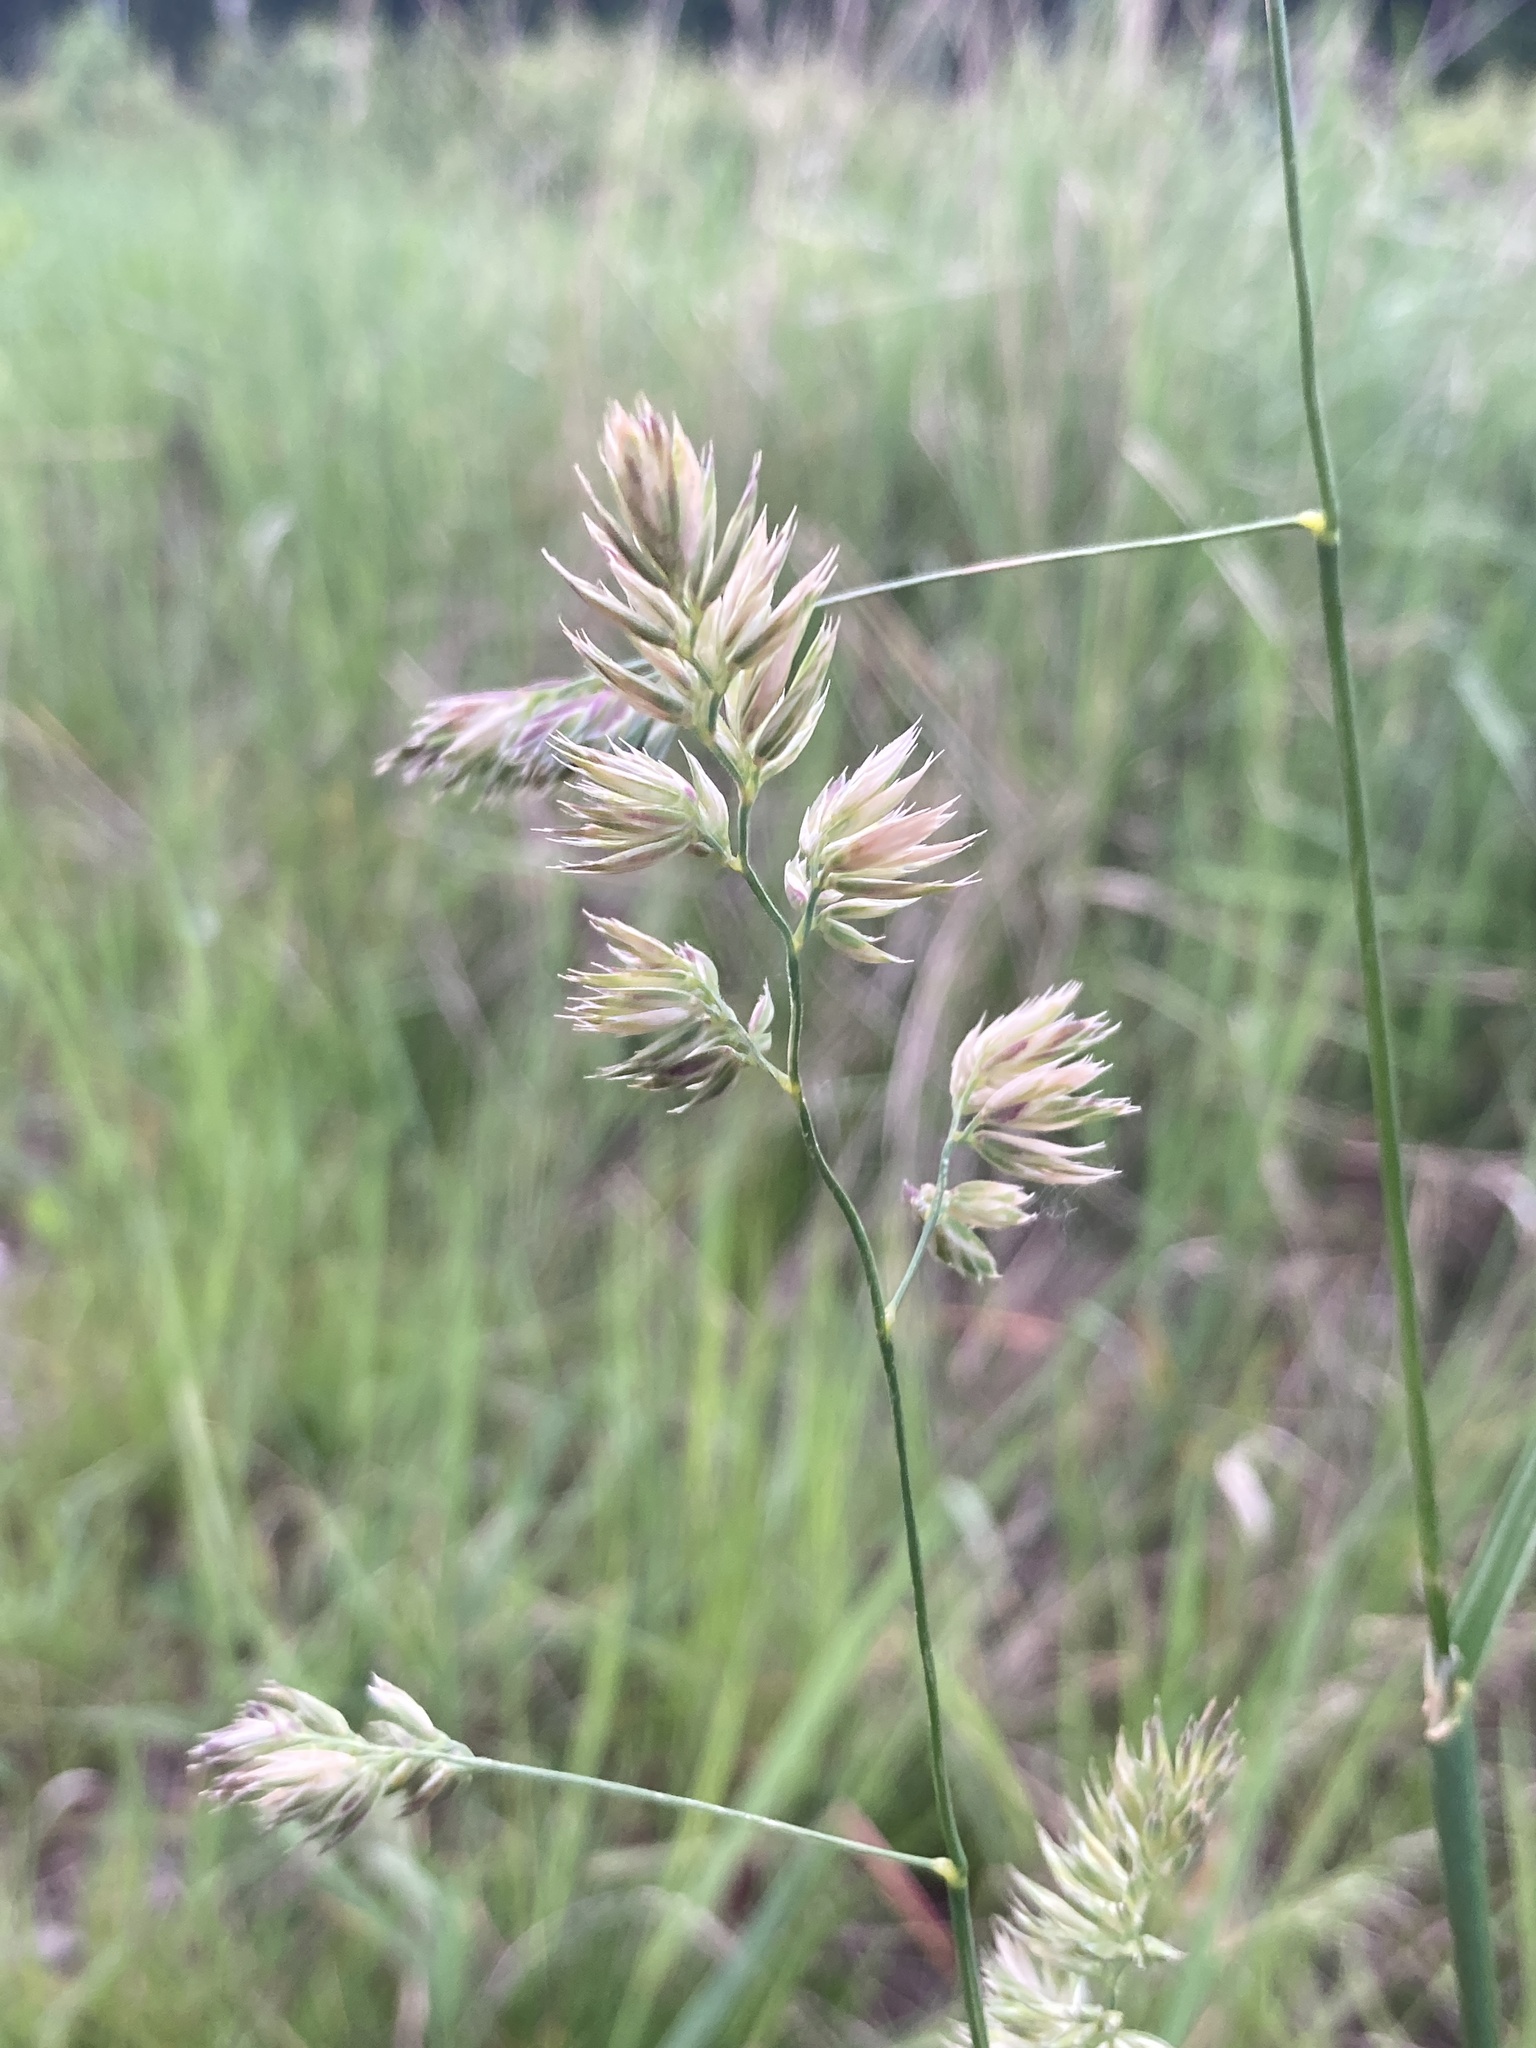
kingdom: Plantae
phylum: Tracheophyta
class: Liliopsida
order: Poales
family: Poaceae
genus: Dactylis
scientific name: Dactylis glomerata
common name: Orchardgrass
